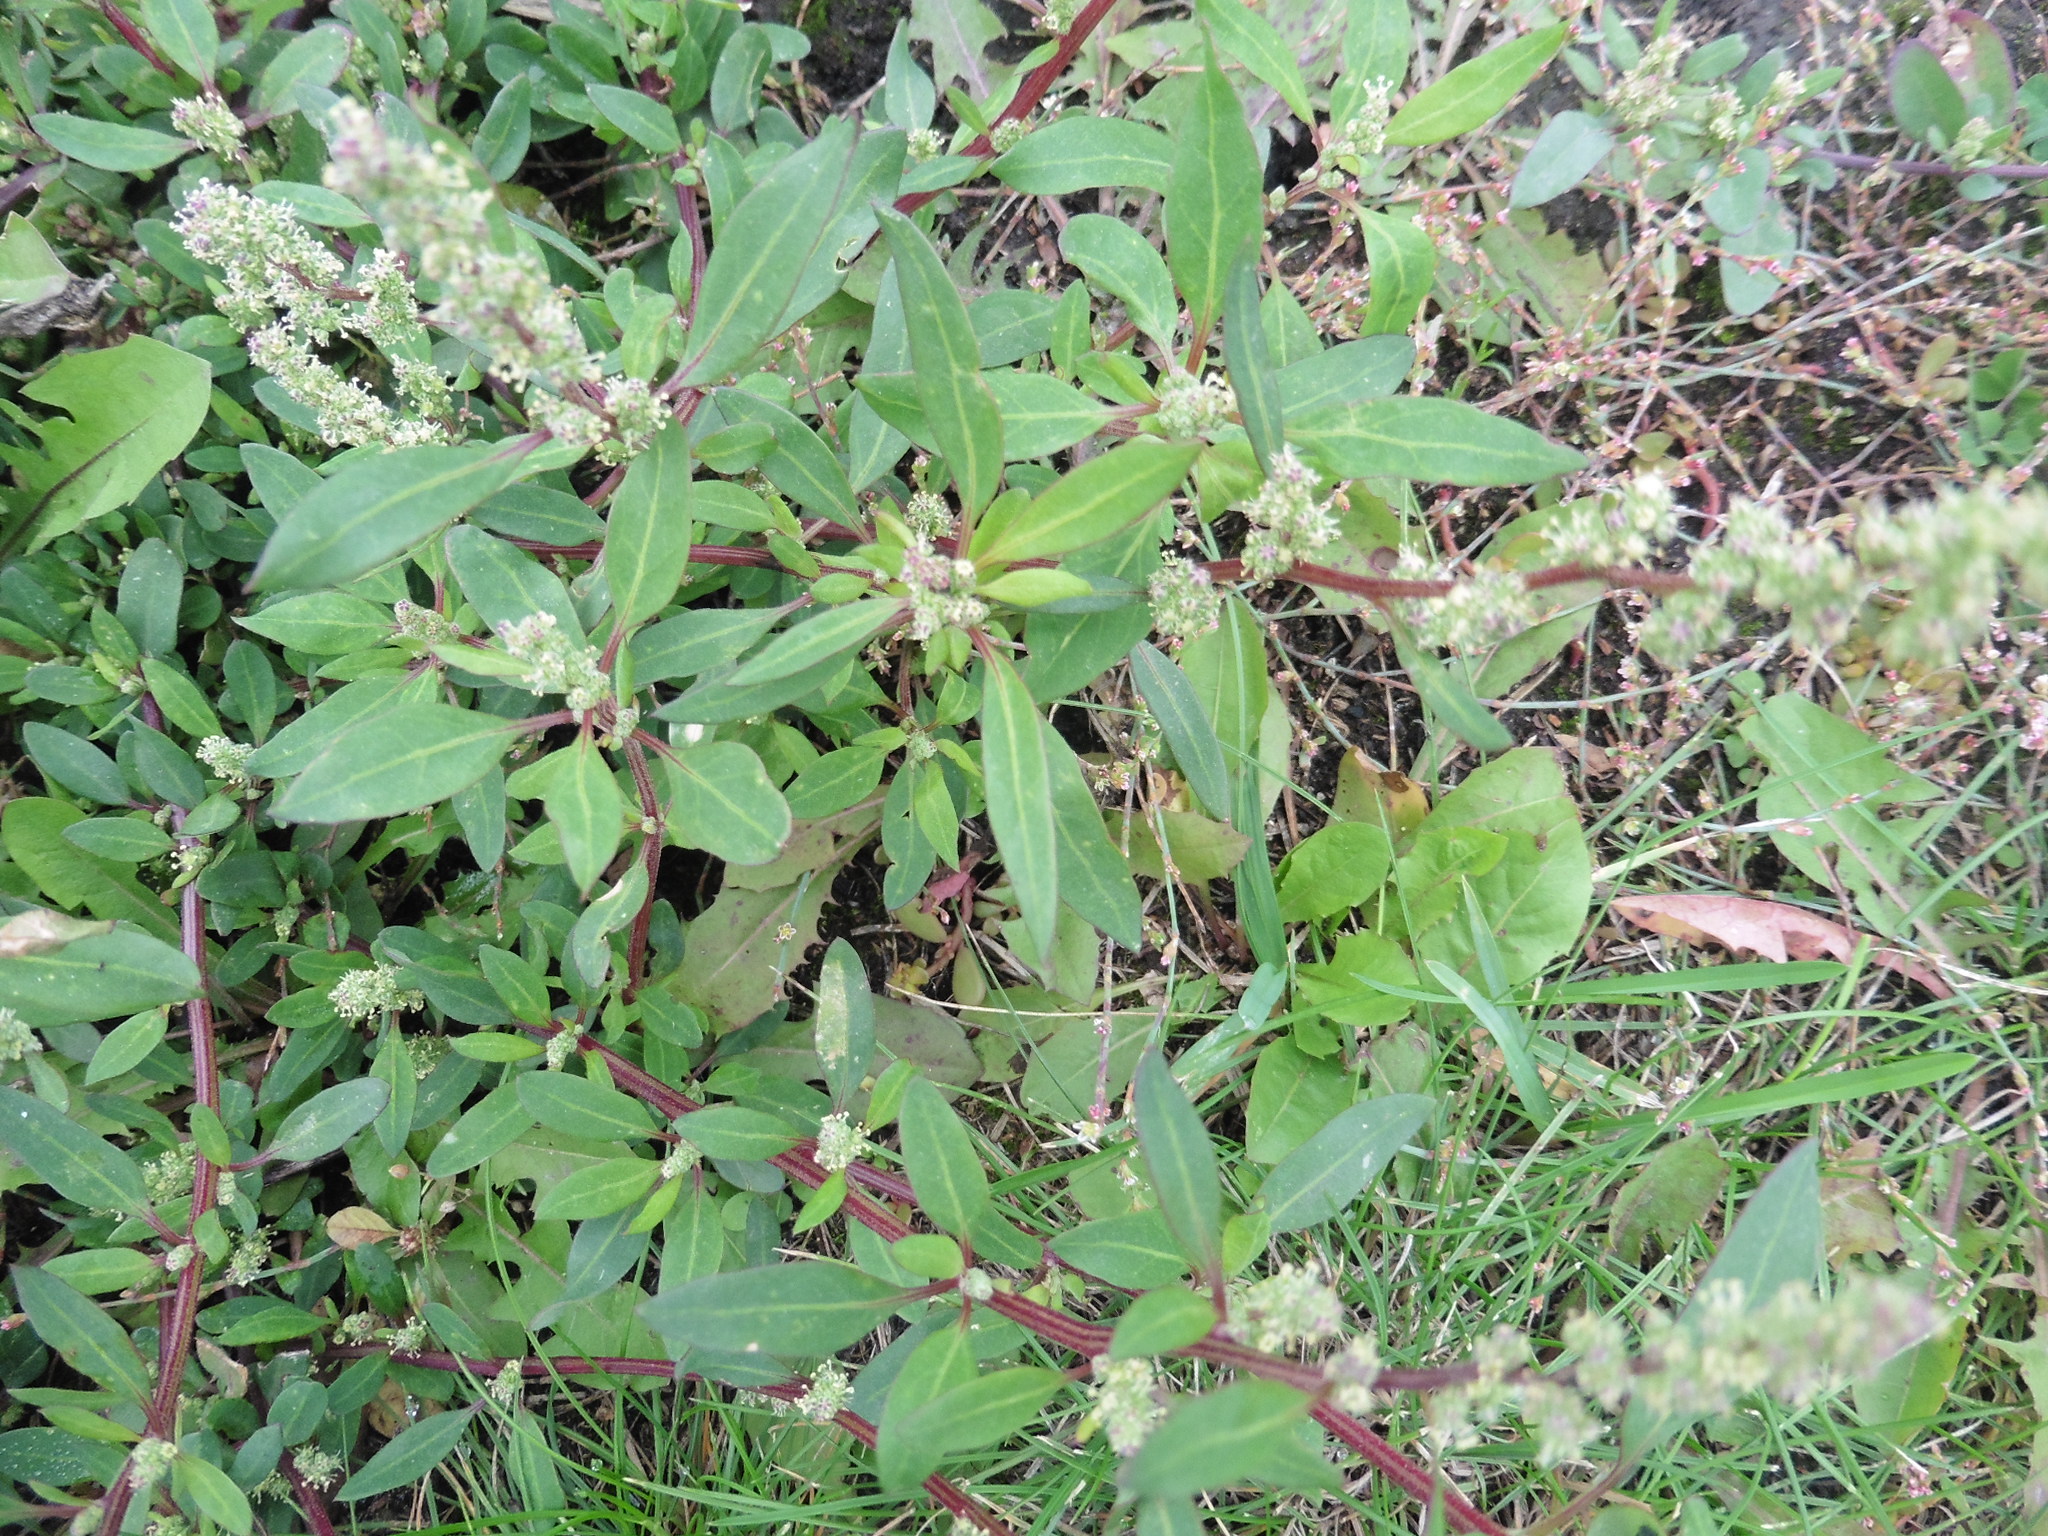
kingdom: Plantae
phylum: Tracheophyta
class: Magnoliopsida
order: Caryophyllales
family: Amaranthaceae
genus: Chenopodium
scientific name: Chenopodium betaceum
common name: Striped goosefoot
